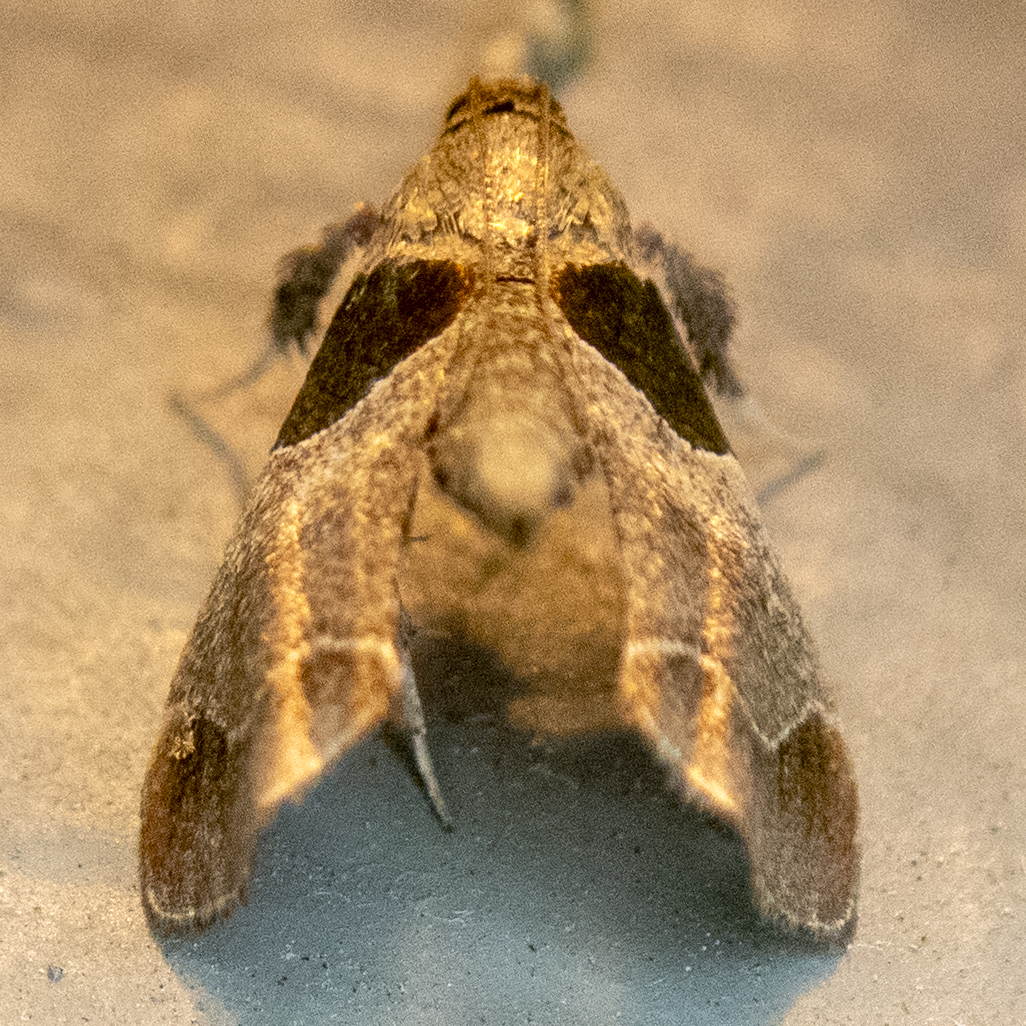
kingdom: Animalia
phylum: Arthropoda
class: Insecta
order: Lepidoptera
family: Pyralidae
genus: Tosale
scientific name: Tosale oviplagalis
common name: Dimorphic tosale moth
